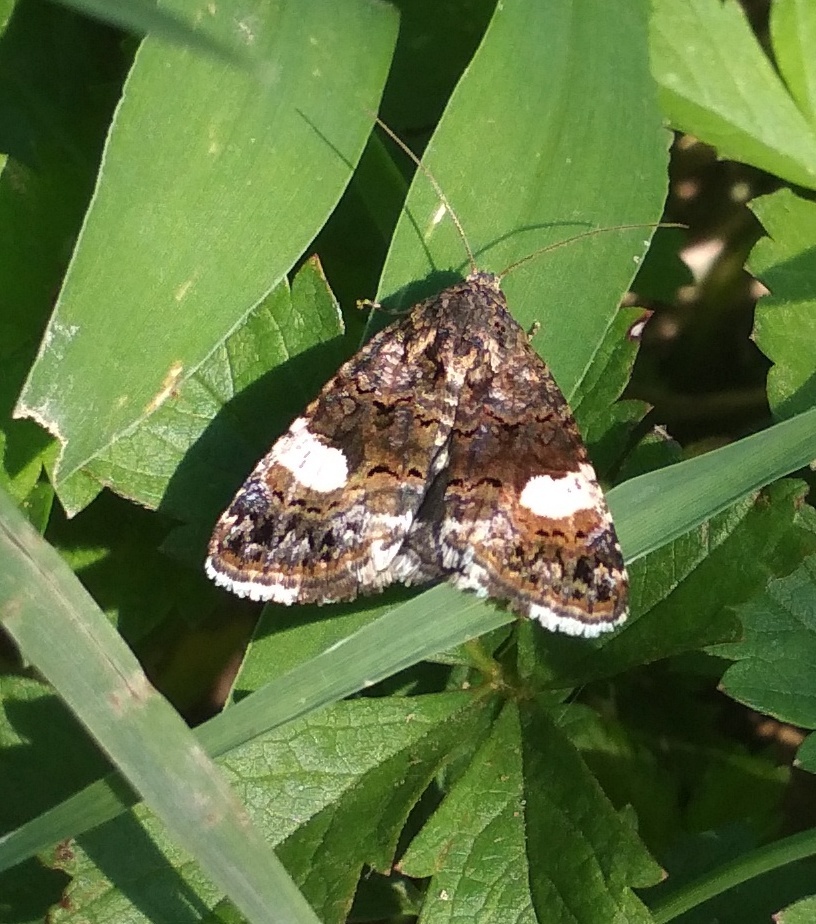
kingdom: Animalia
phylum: Arthropoda
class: Insecta
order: Lepidoptera
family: Erebidae
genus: Tyta
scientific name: Tyta luctuosa
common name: Four-spotted
